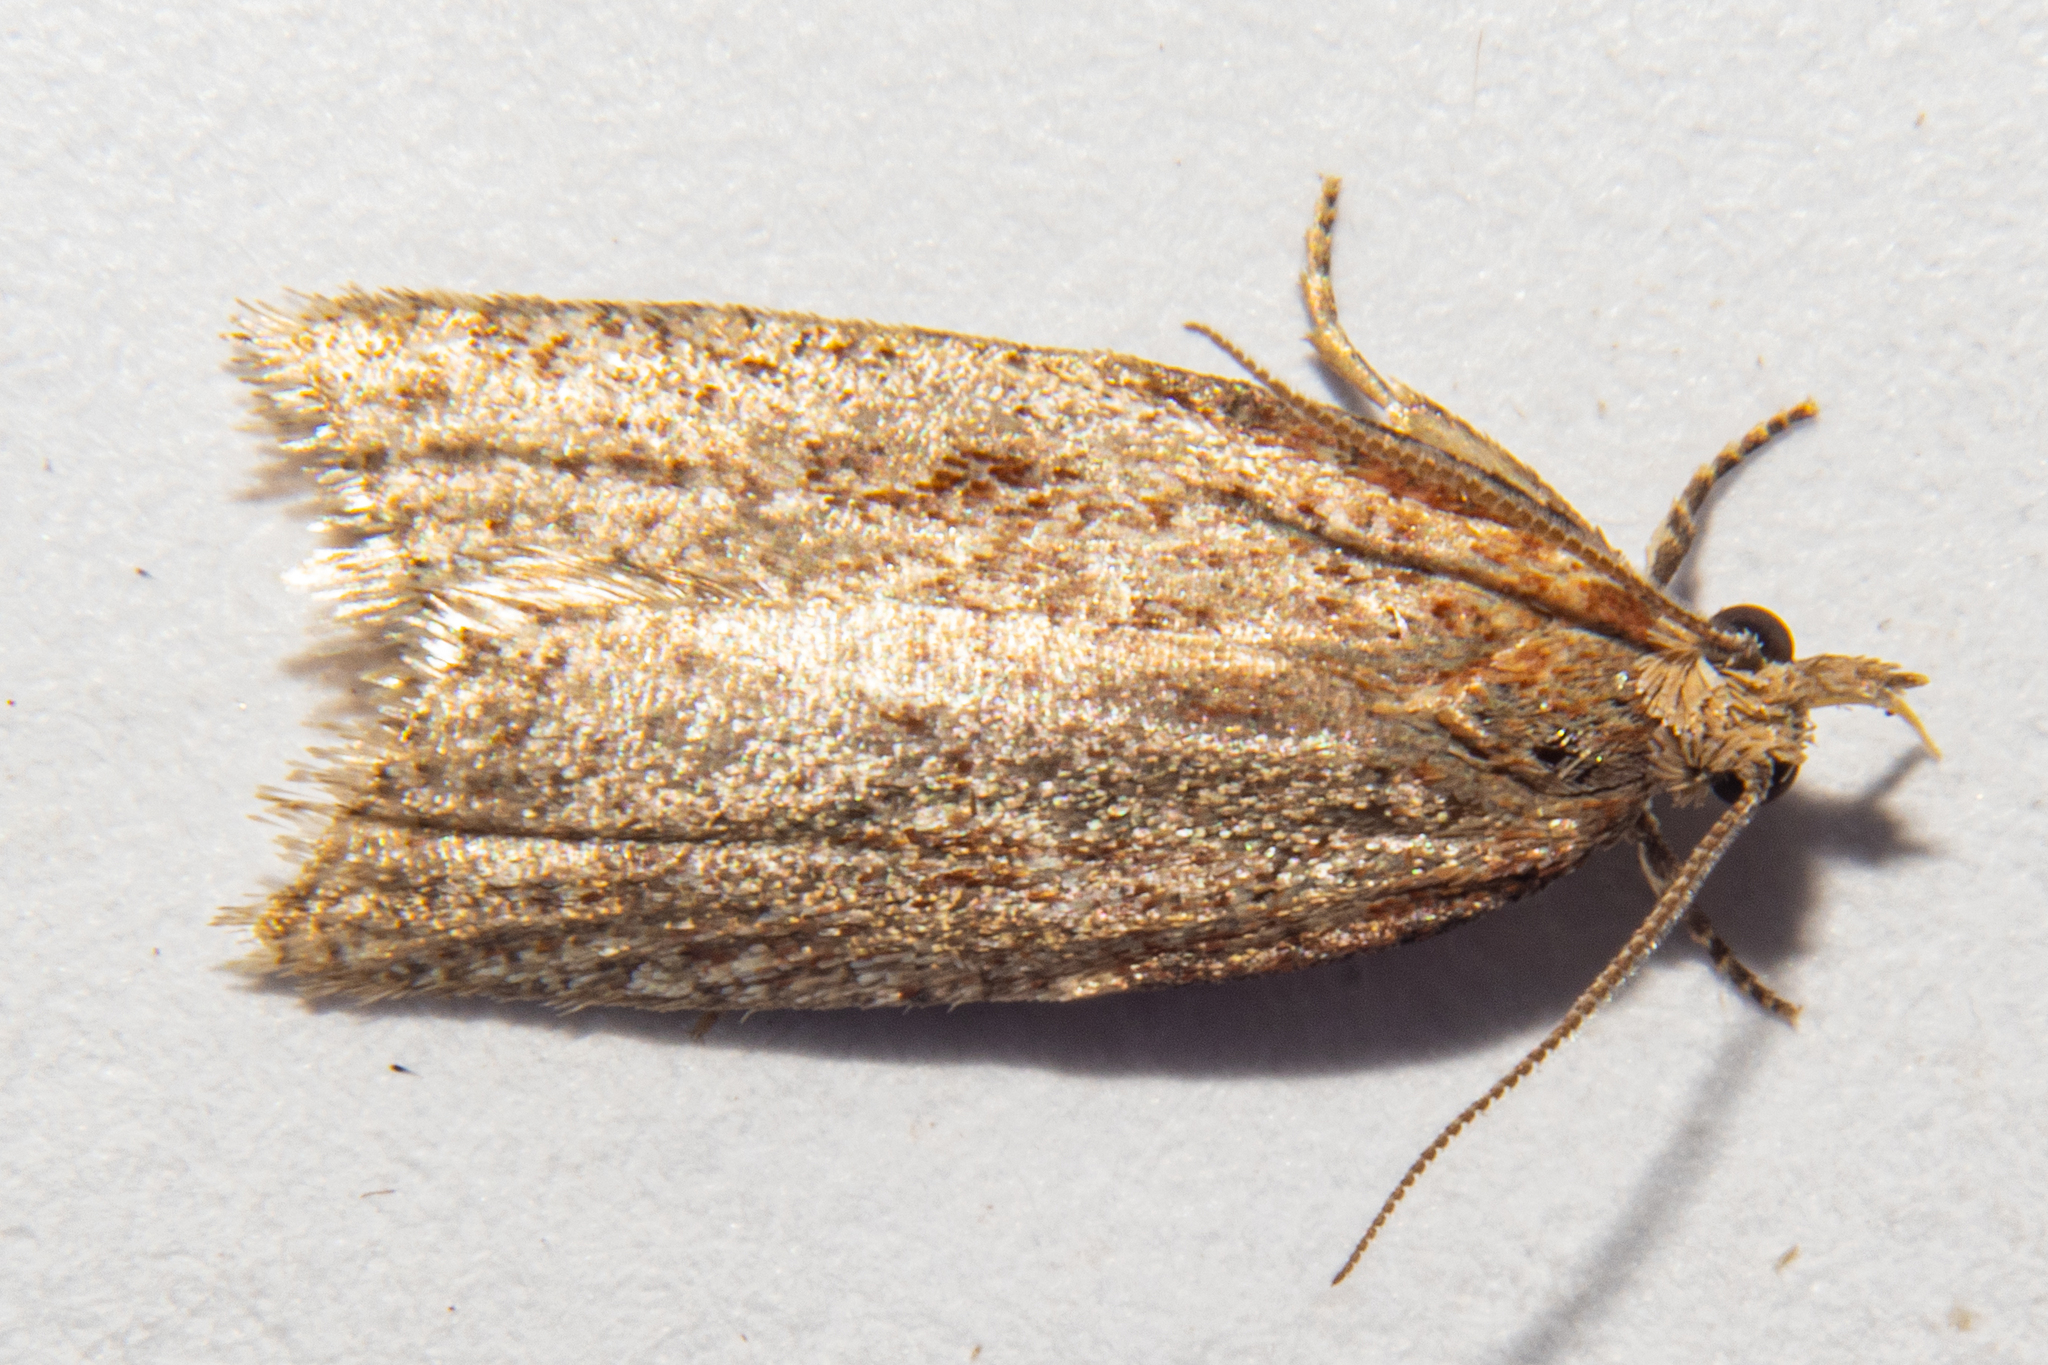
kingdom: Animalia
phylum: Arthropoda
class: Insecta
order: Lepidoptera
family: Tortricidae
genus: Capua
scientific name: Capua semiferana
